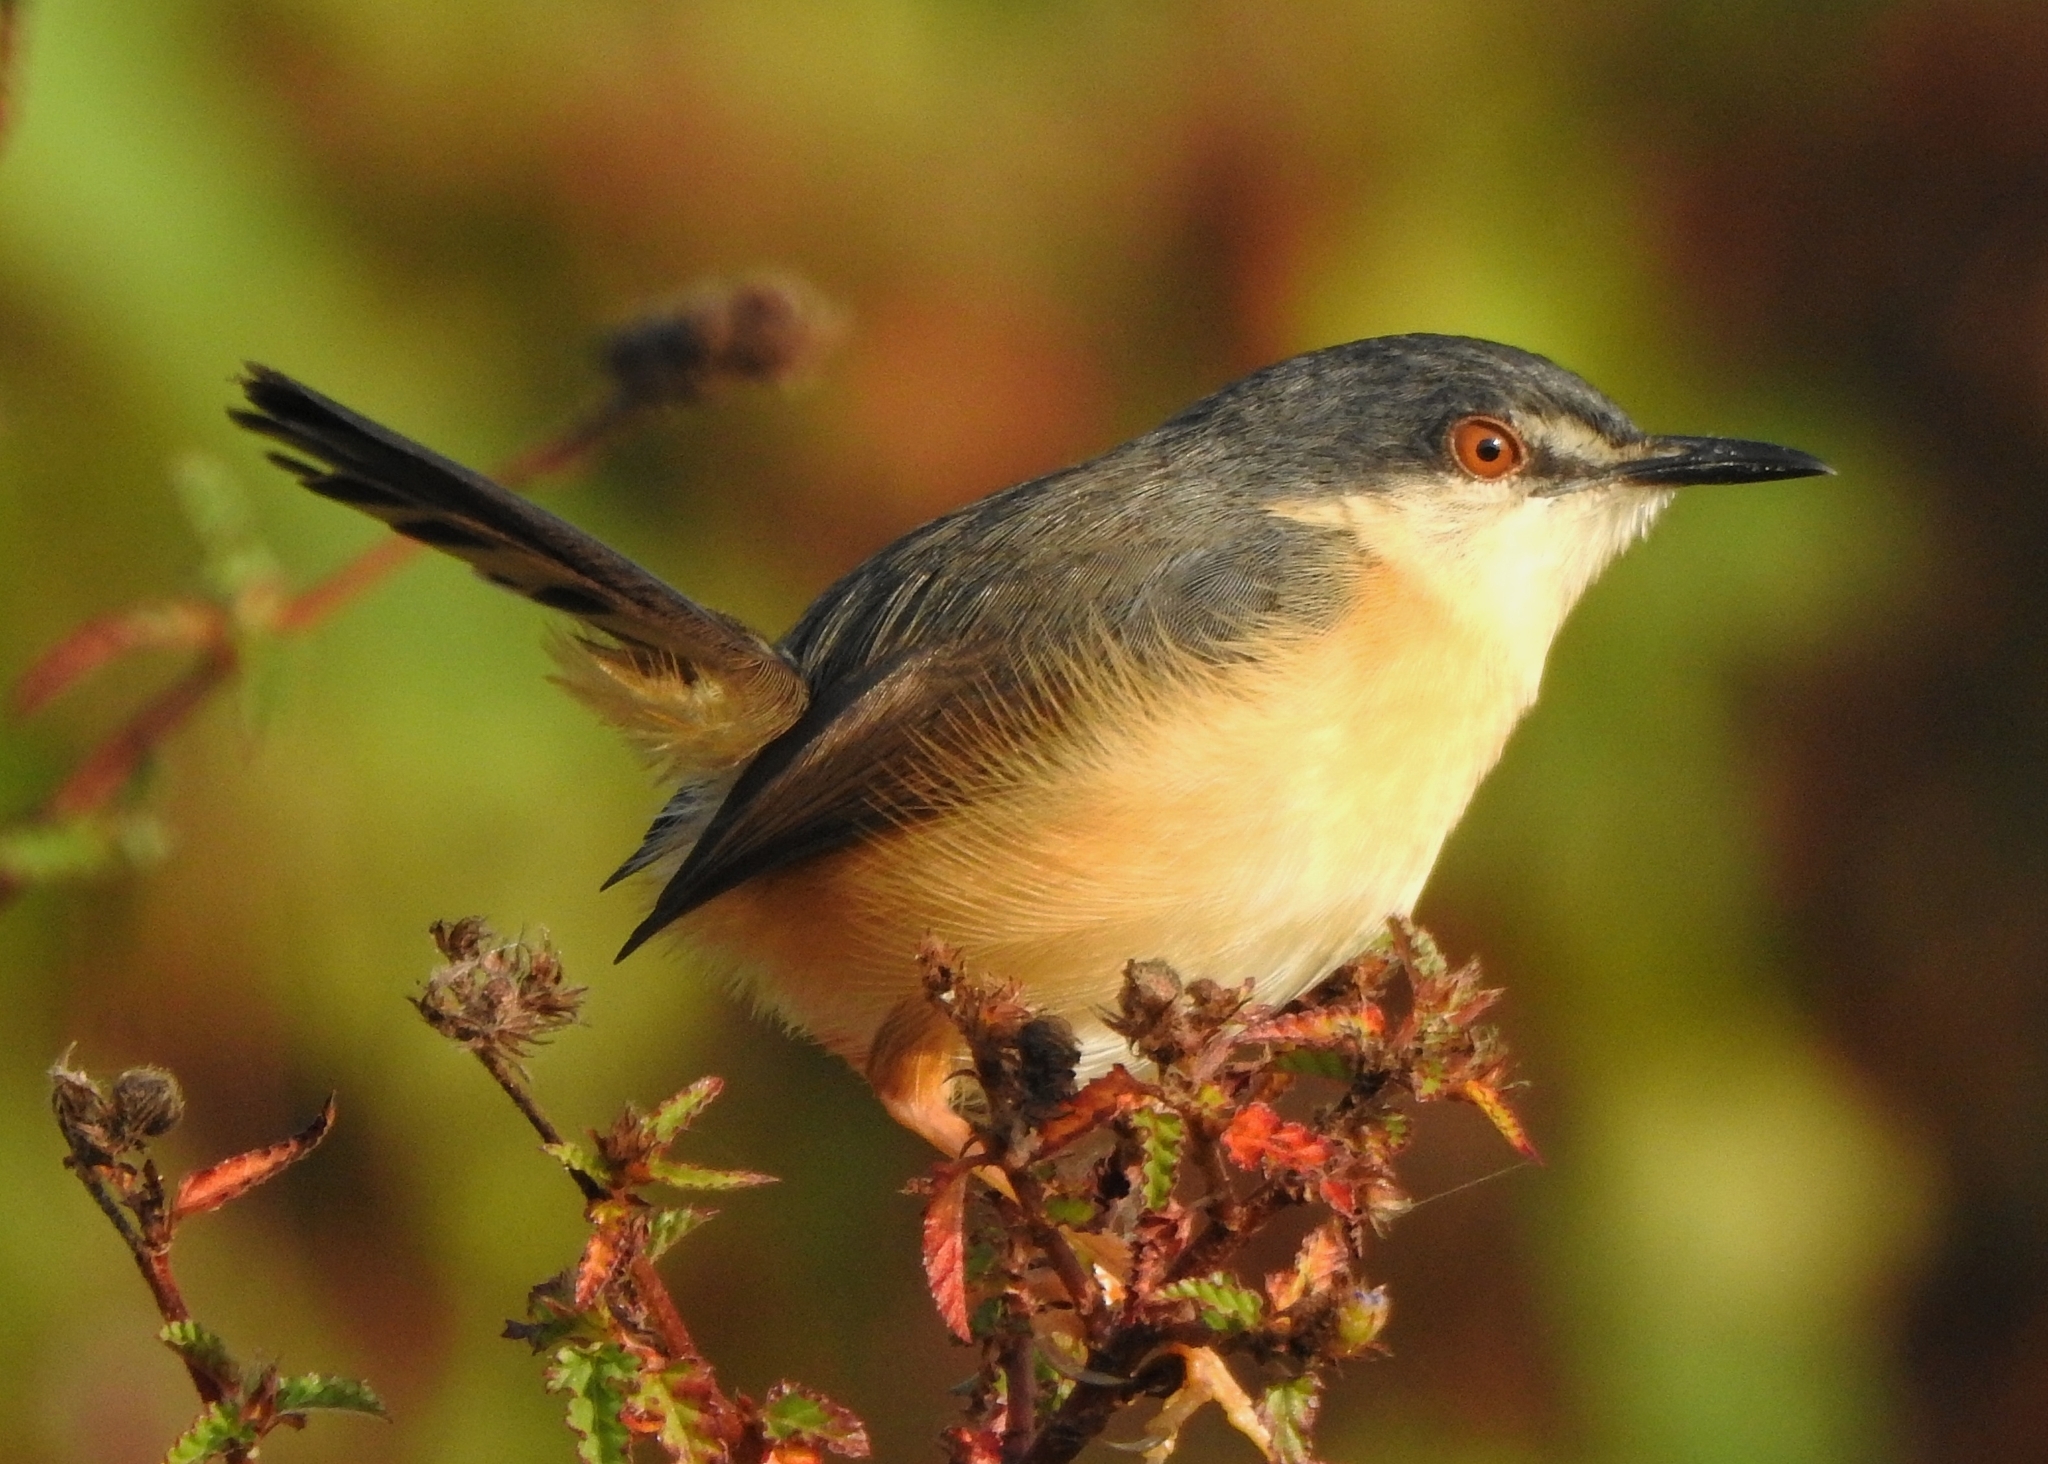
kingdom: Animalia
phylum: Chordata
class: Aves
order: Passeriformes
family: Cisticolidae
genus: Prinia
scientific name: Prinia socialis
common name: Ashy prinia
